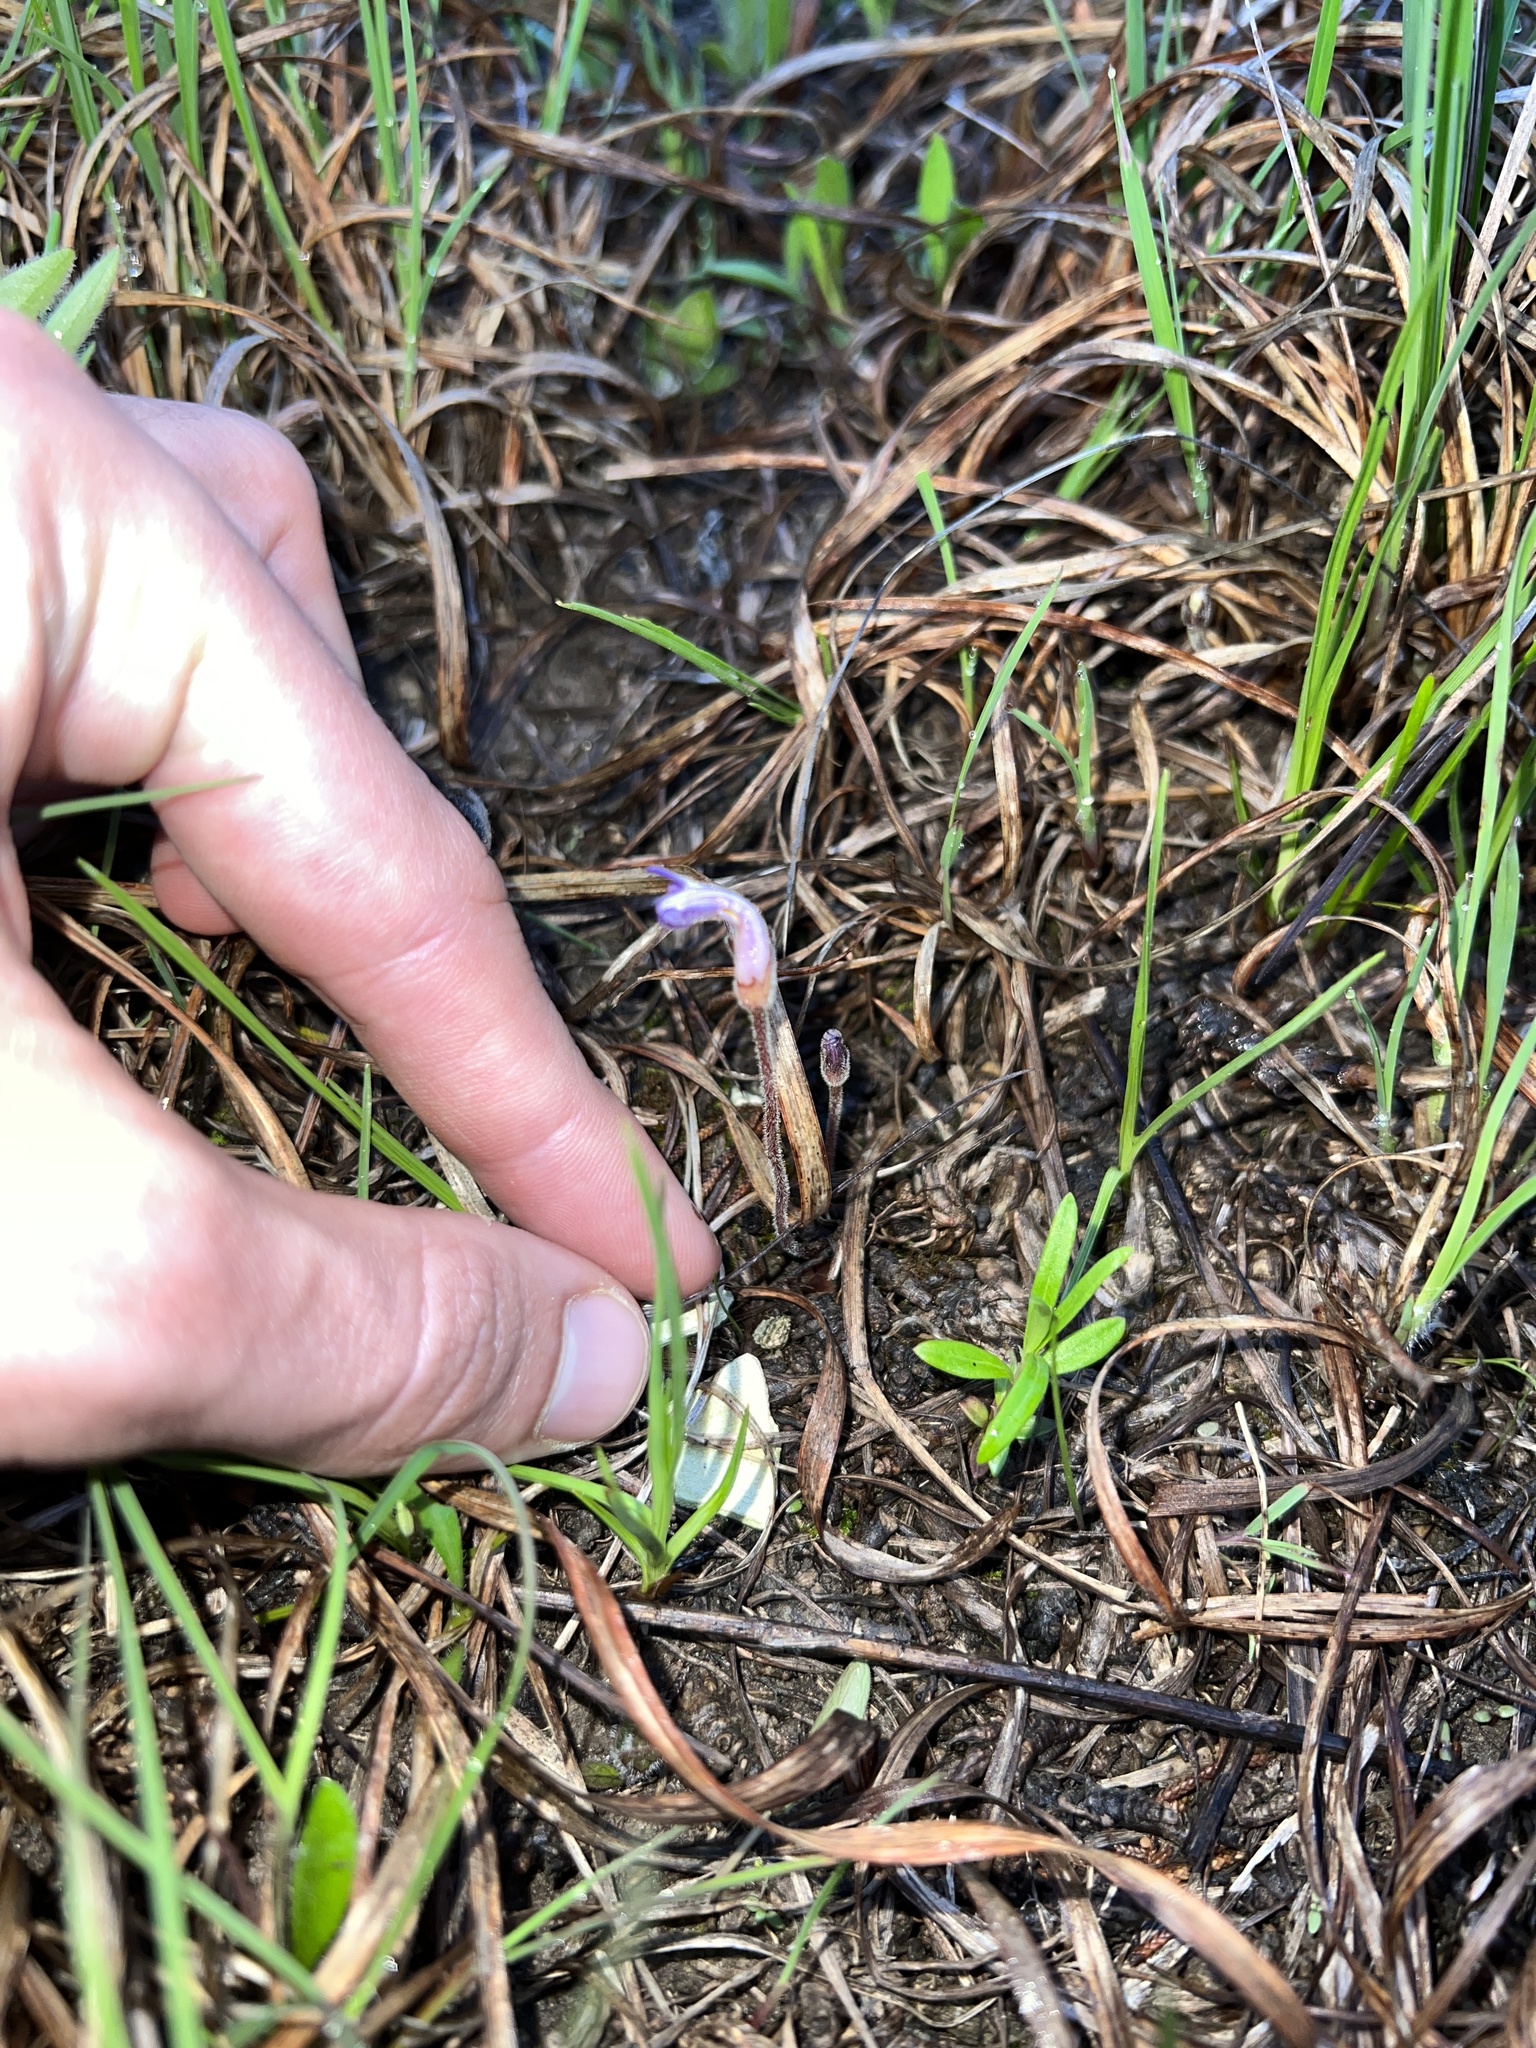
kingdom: Plantae
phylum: Tracheophyta
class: Magnoliopsida
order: Lamiales
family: Orobanchaceae
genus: Aphyllon
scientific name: Aphyllon uniflorum
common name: One-flowered broomrape
